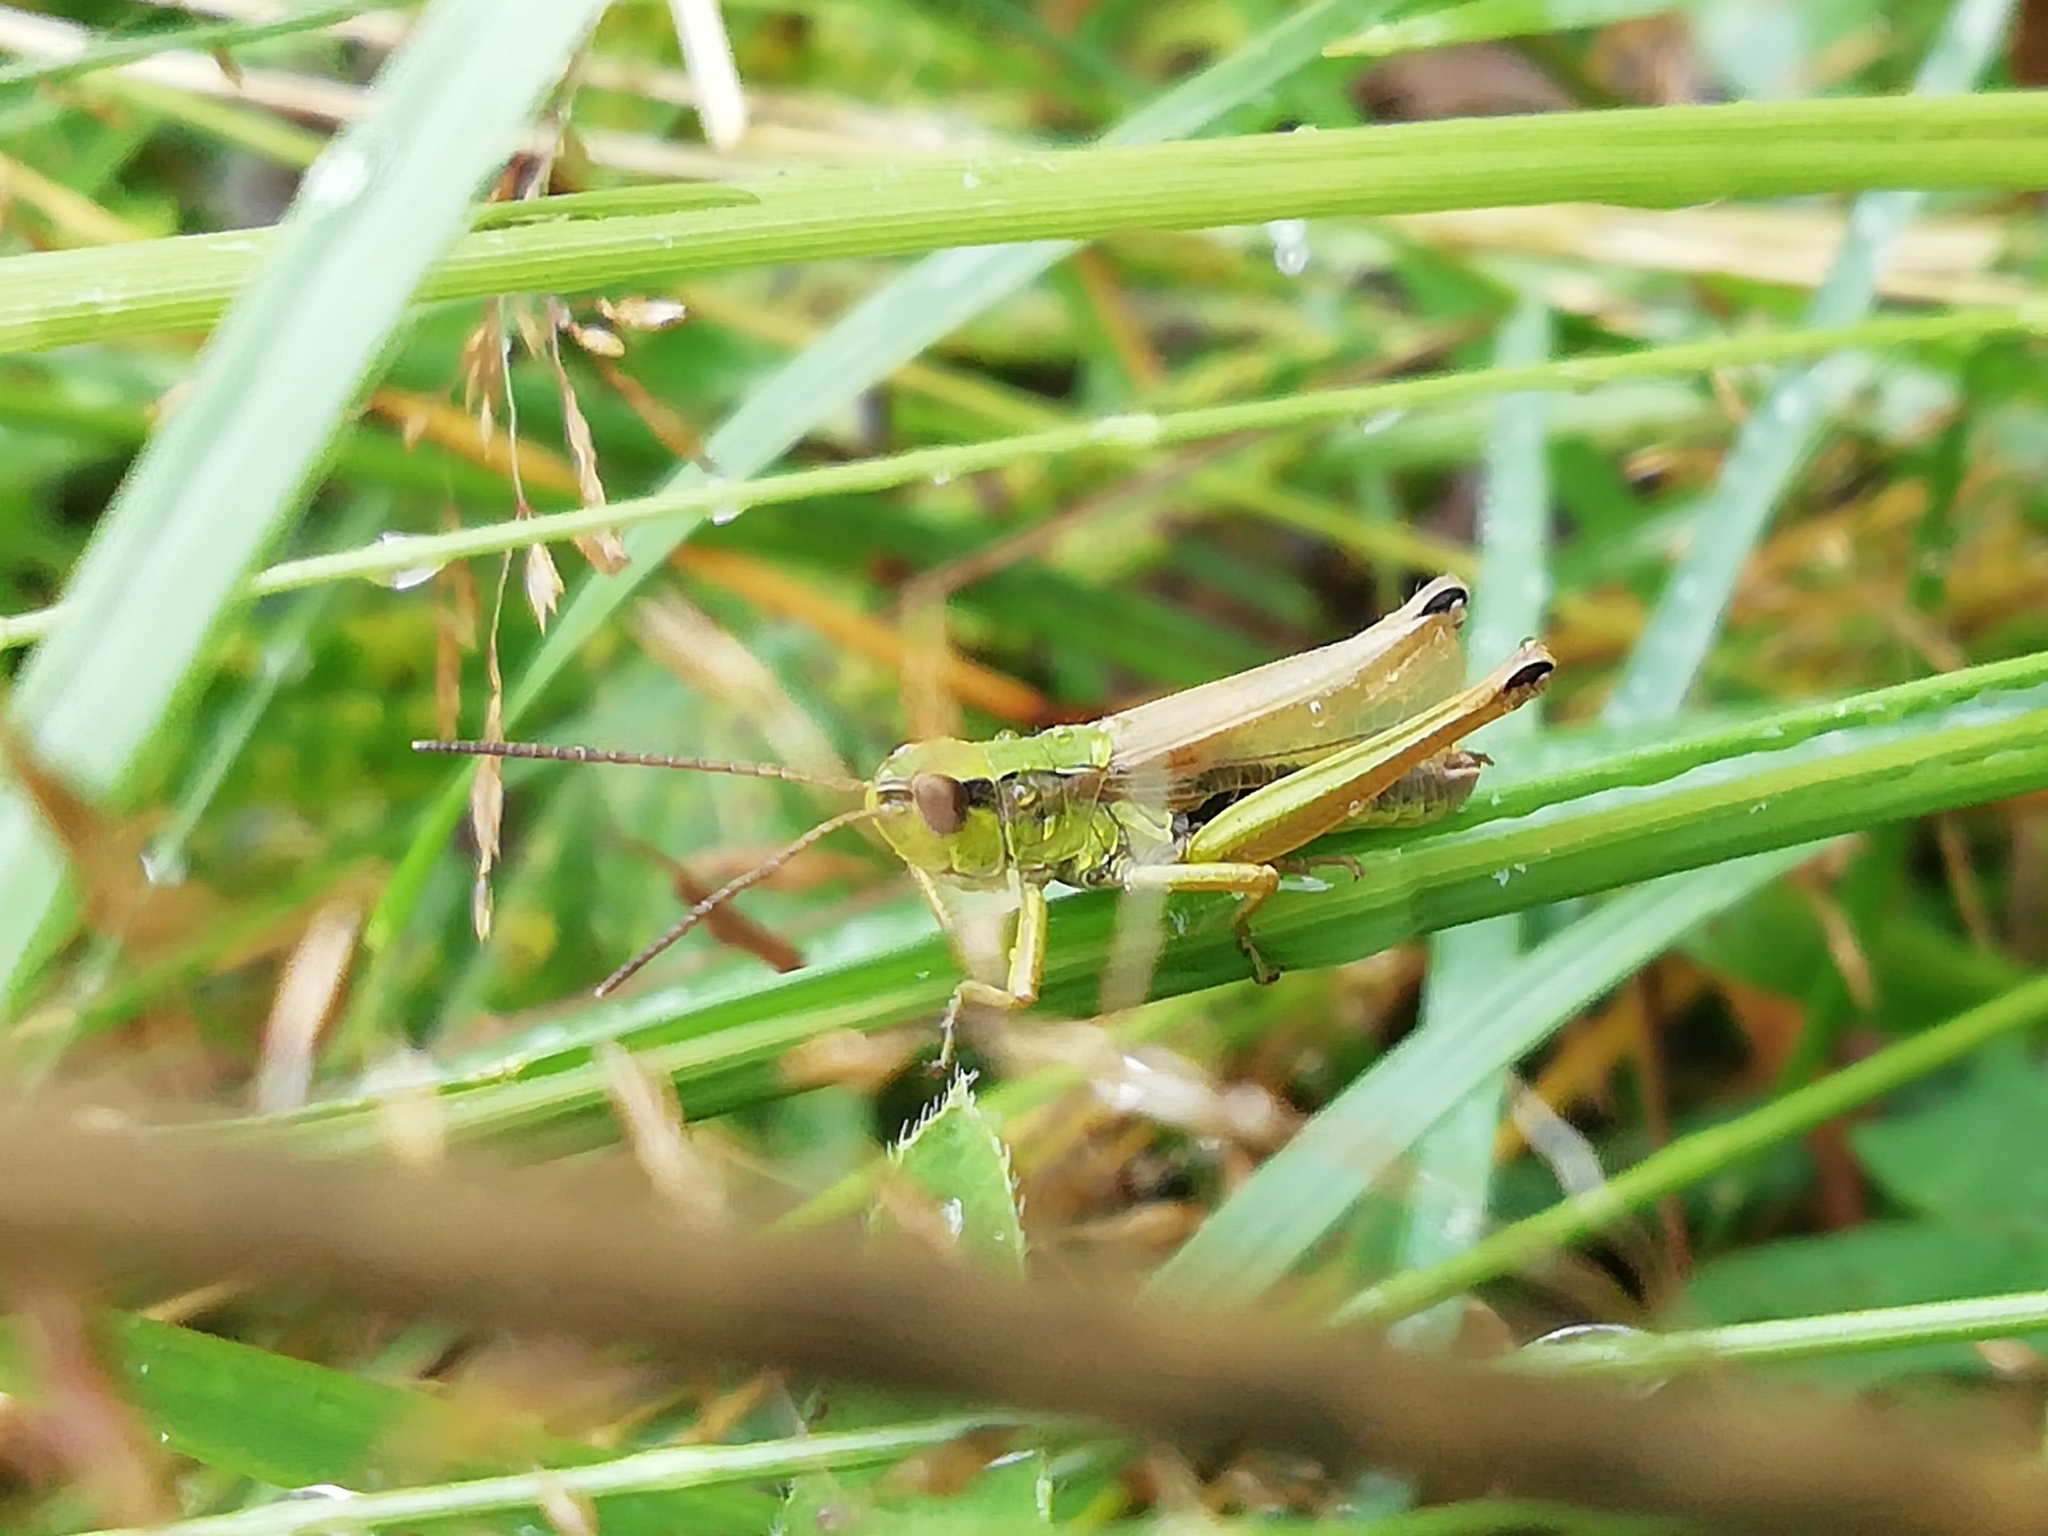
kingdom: Animalia
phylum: Arthropoda
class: Insecta
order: Orthoptera
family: Acrididae
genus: Chorthippus
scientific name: Chorthippus fallax
